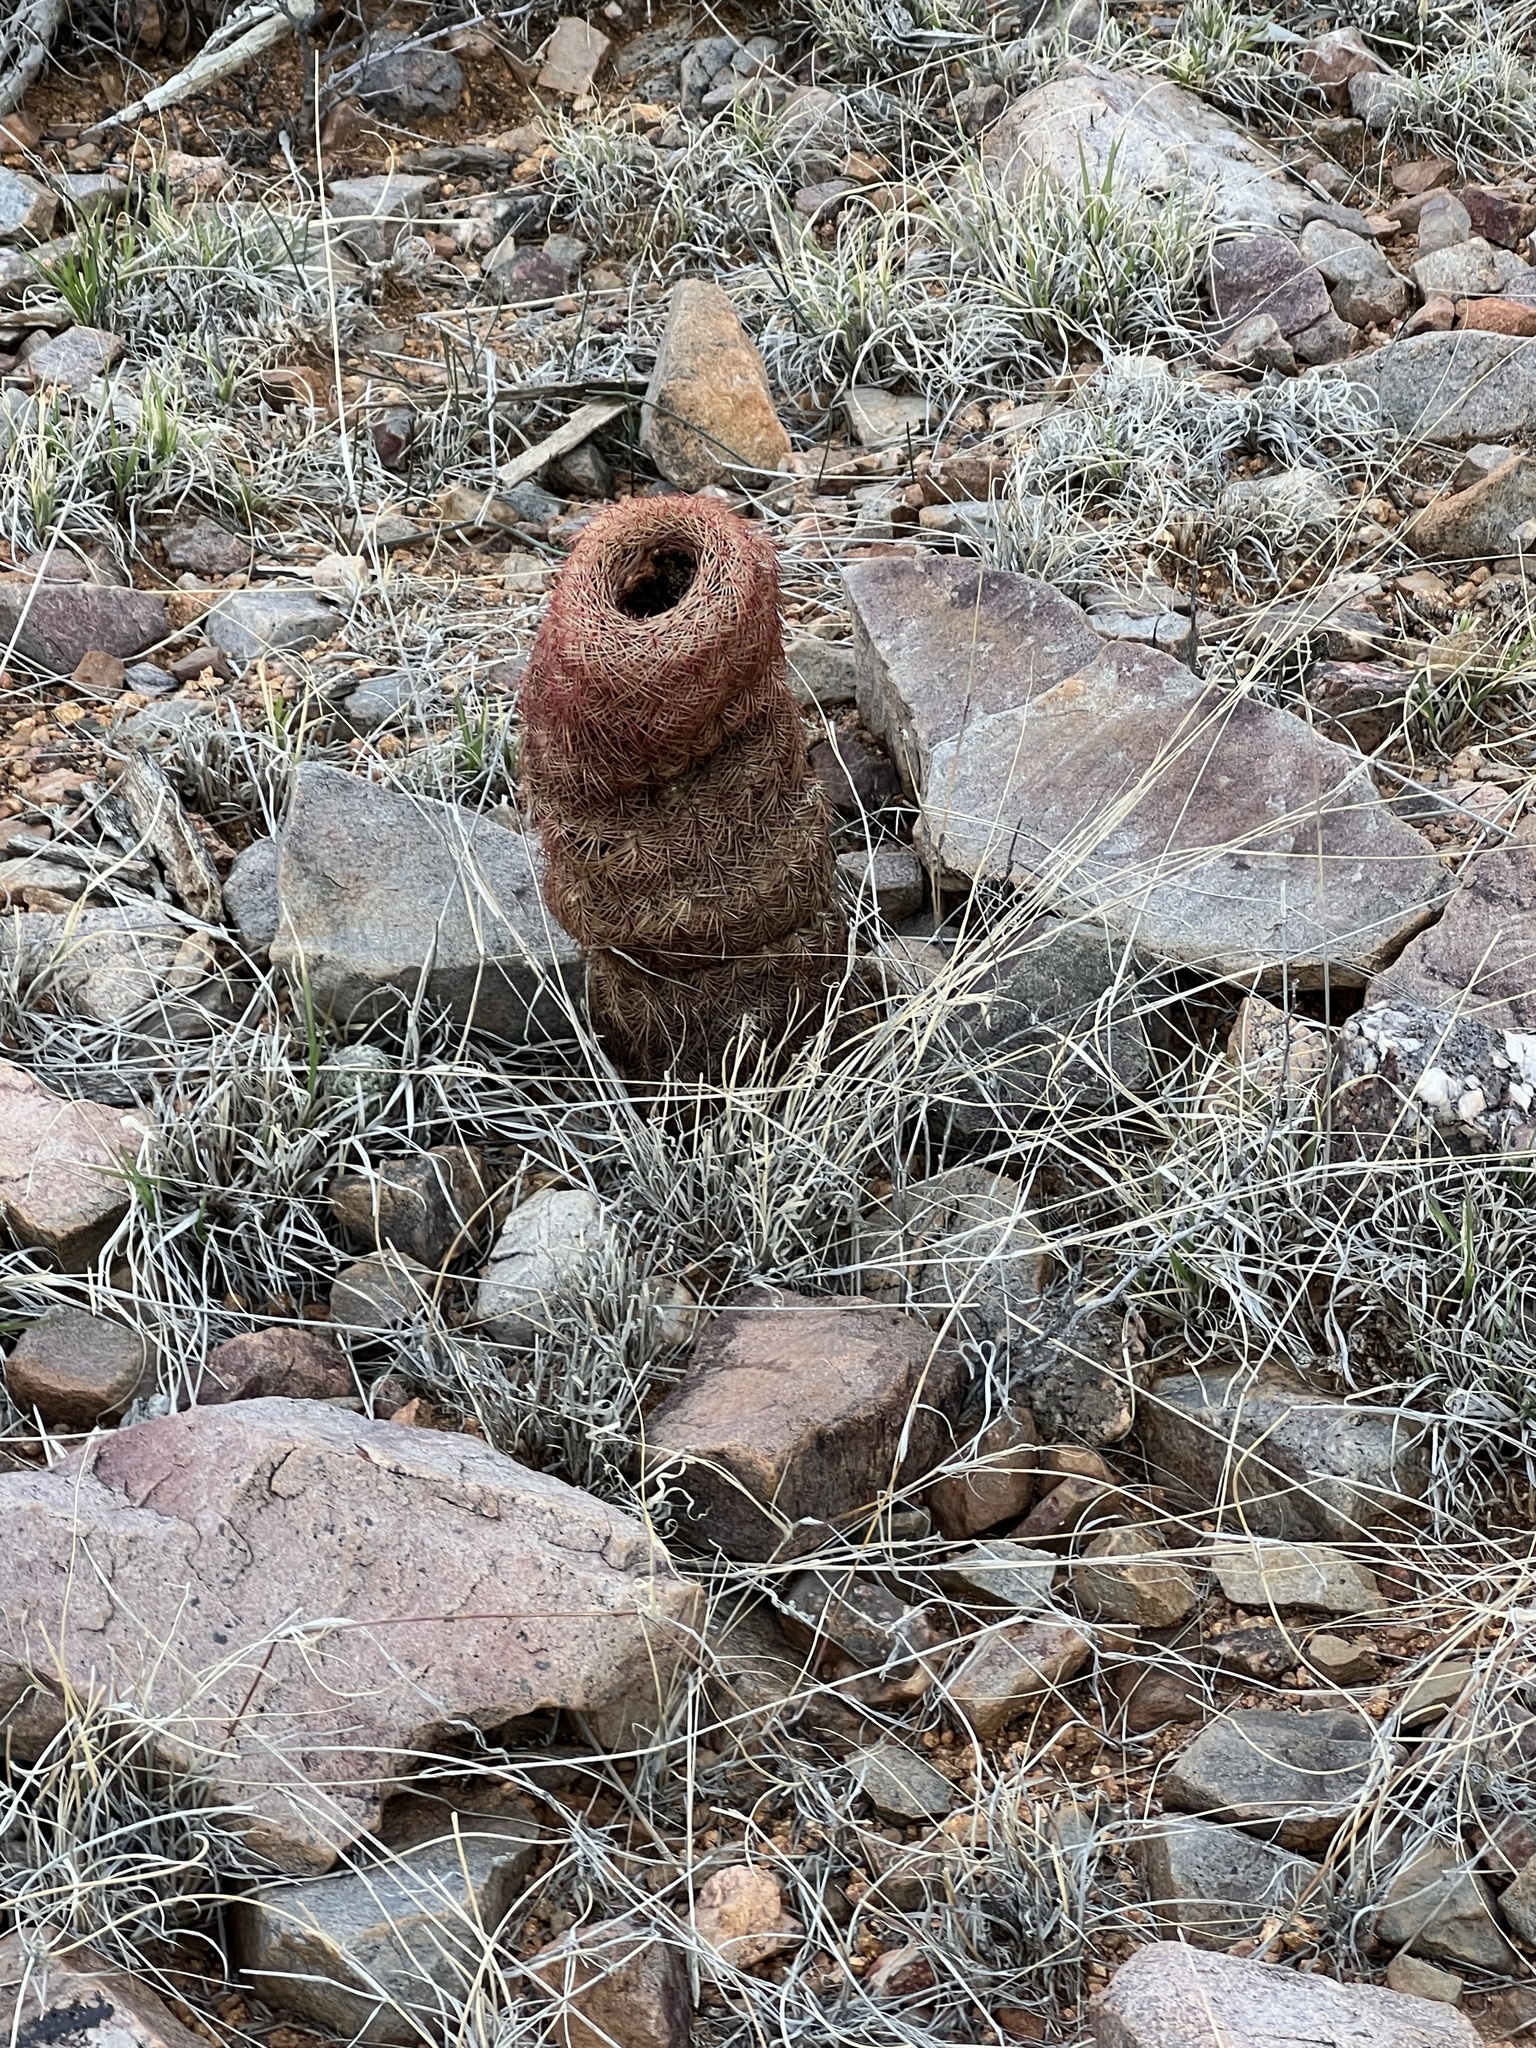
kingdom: Plantae
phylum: Tracheophyta
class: Magnoliopsida
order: Caryophyllales
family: Cactaceae
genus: Echinocereus
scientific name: Echinocereus rigidissimus
